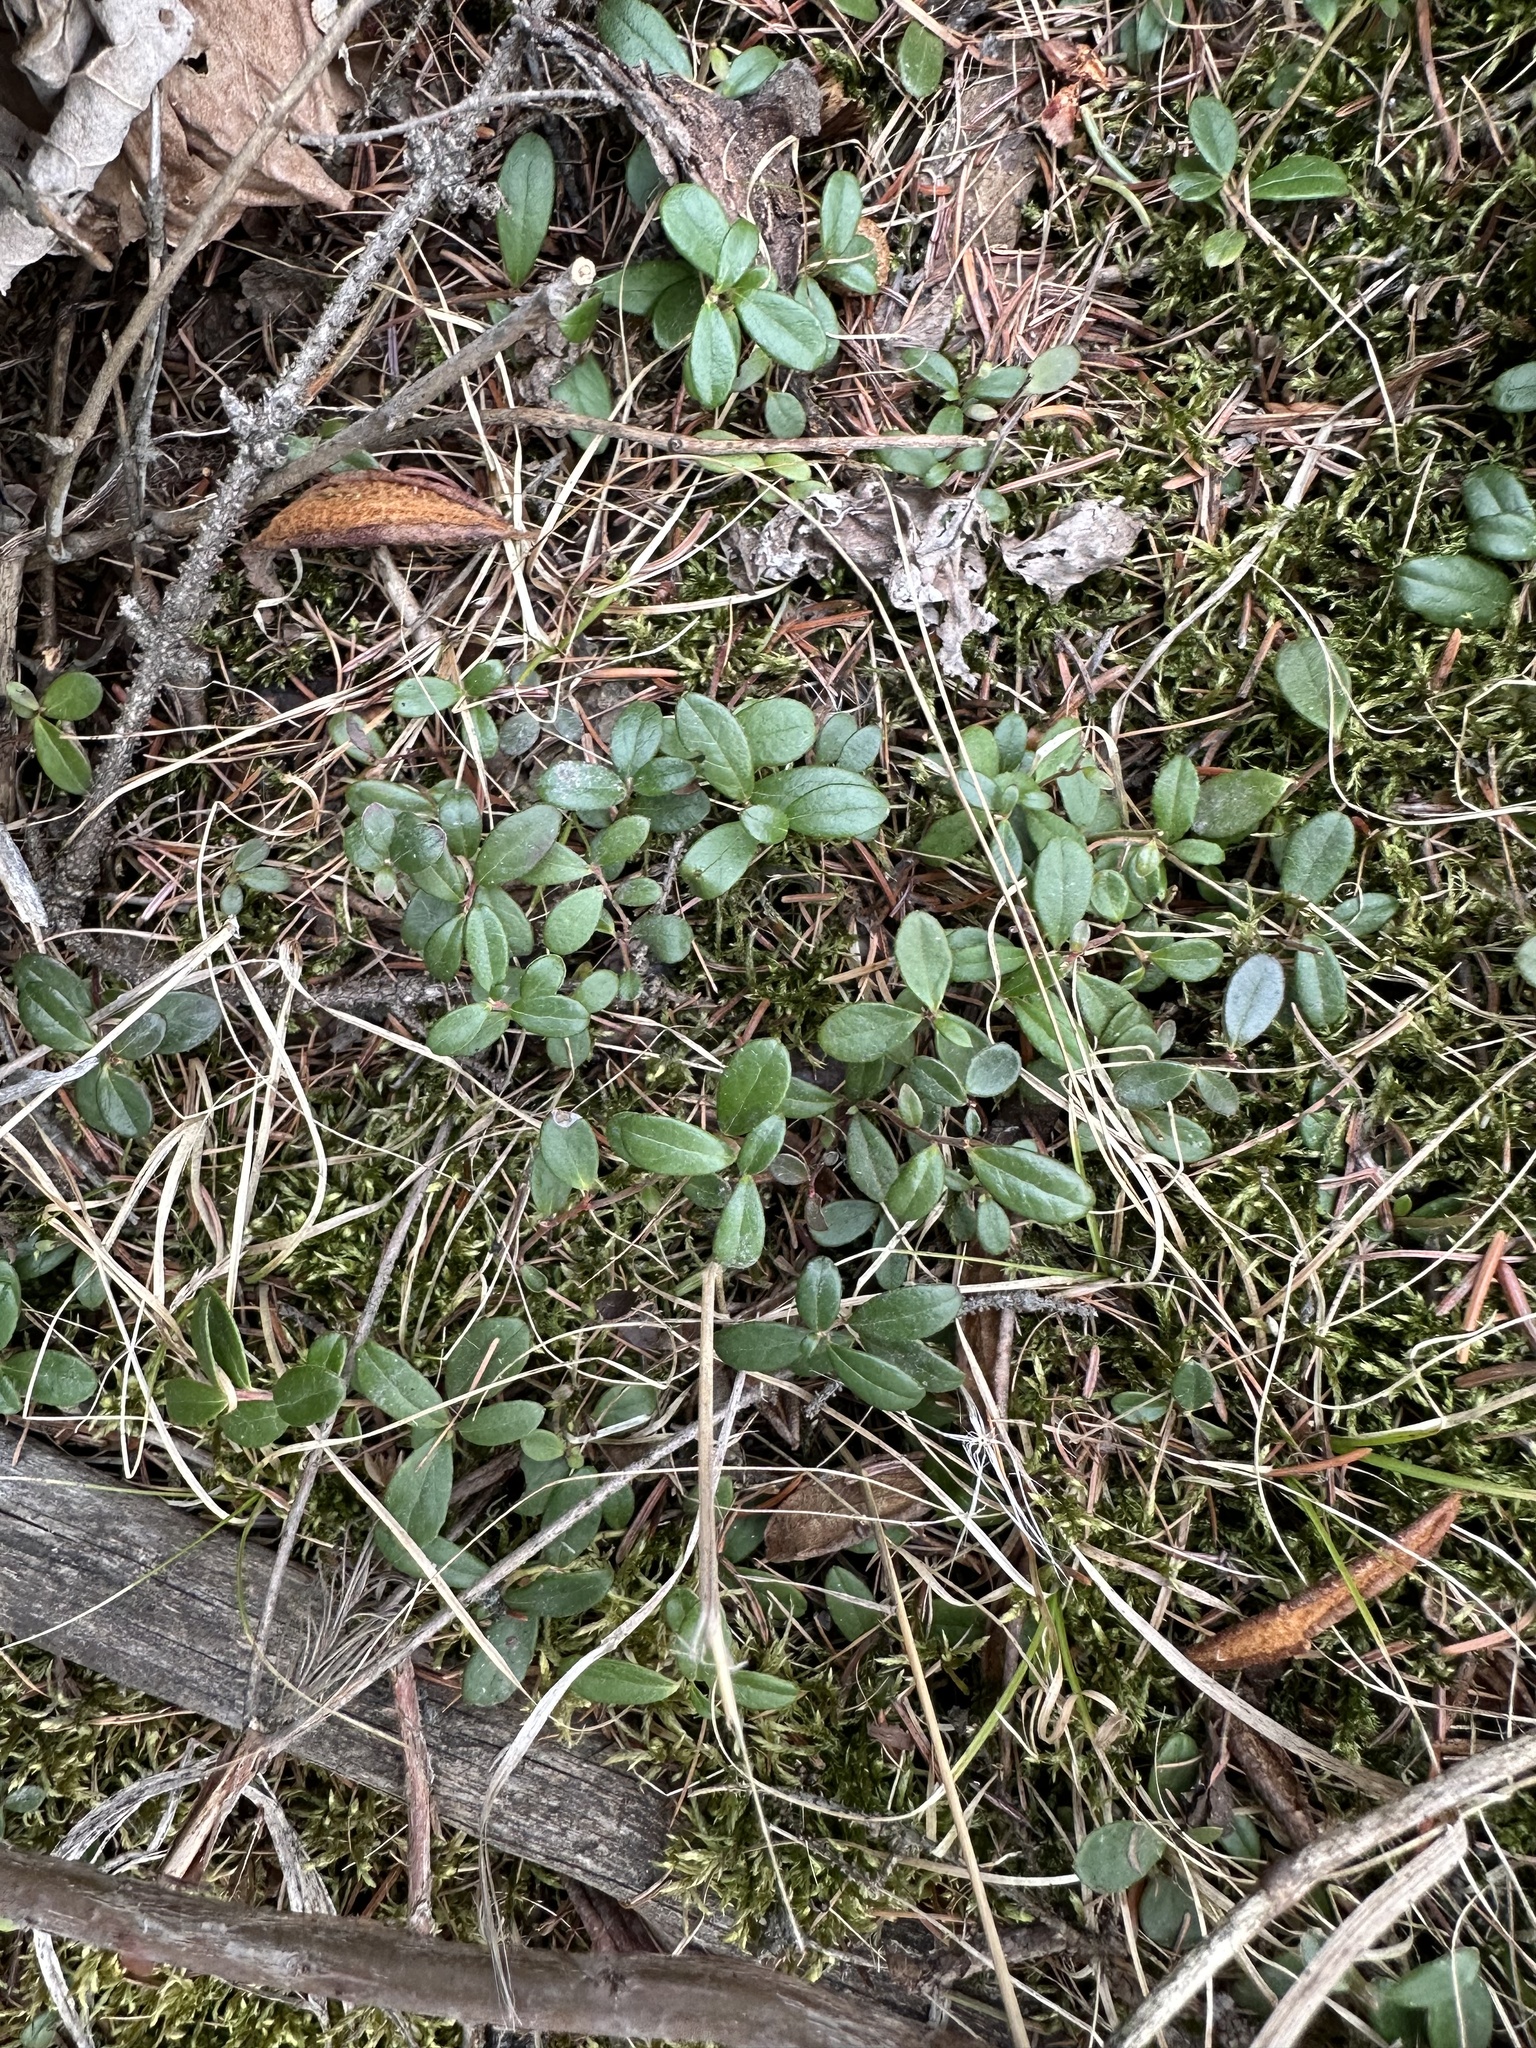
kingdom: Plantae
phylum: Tracheophyta
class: Magnoliopsida
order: Ericales
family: Ericaceae
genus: Vaccinium
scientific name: Vaccinium vitis-idaea
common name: Cowberry
